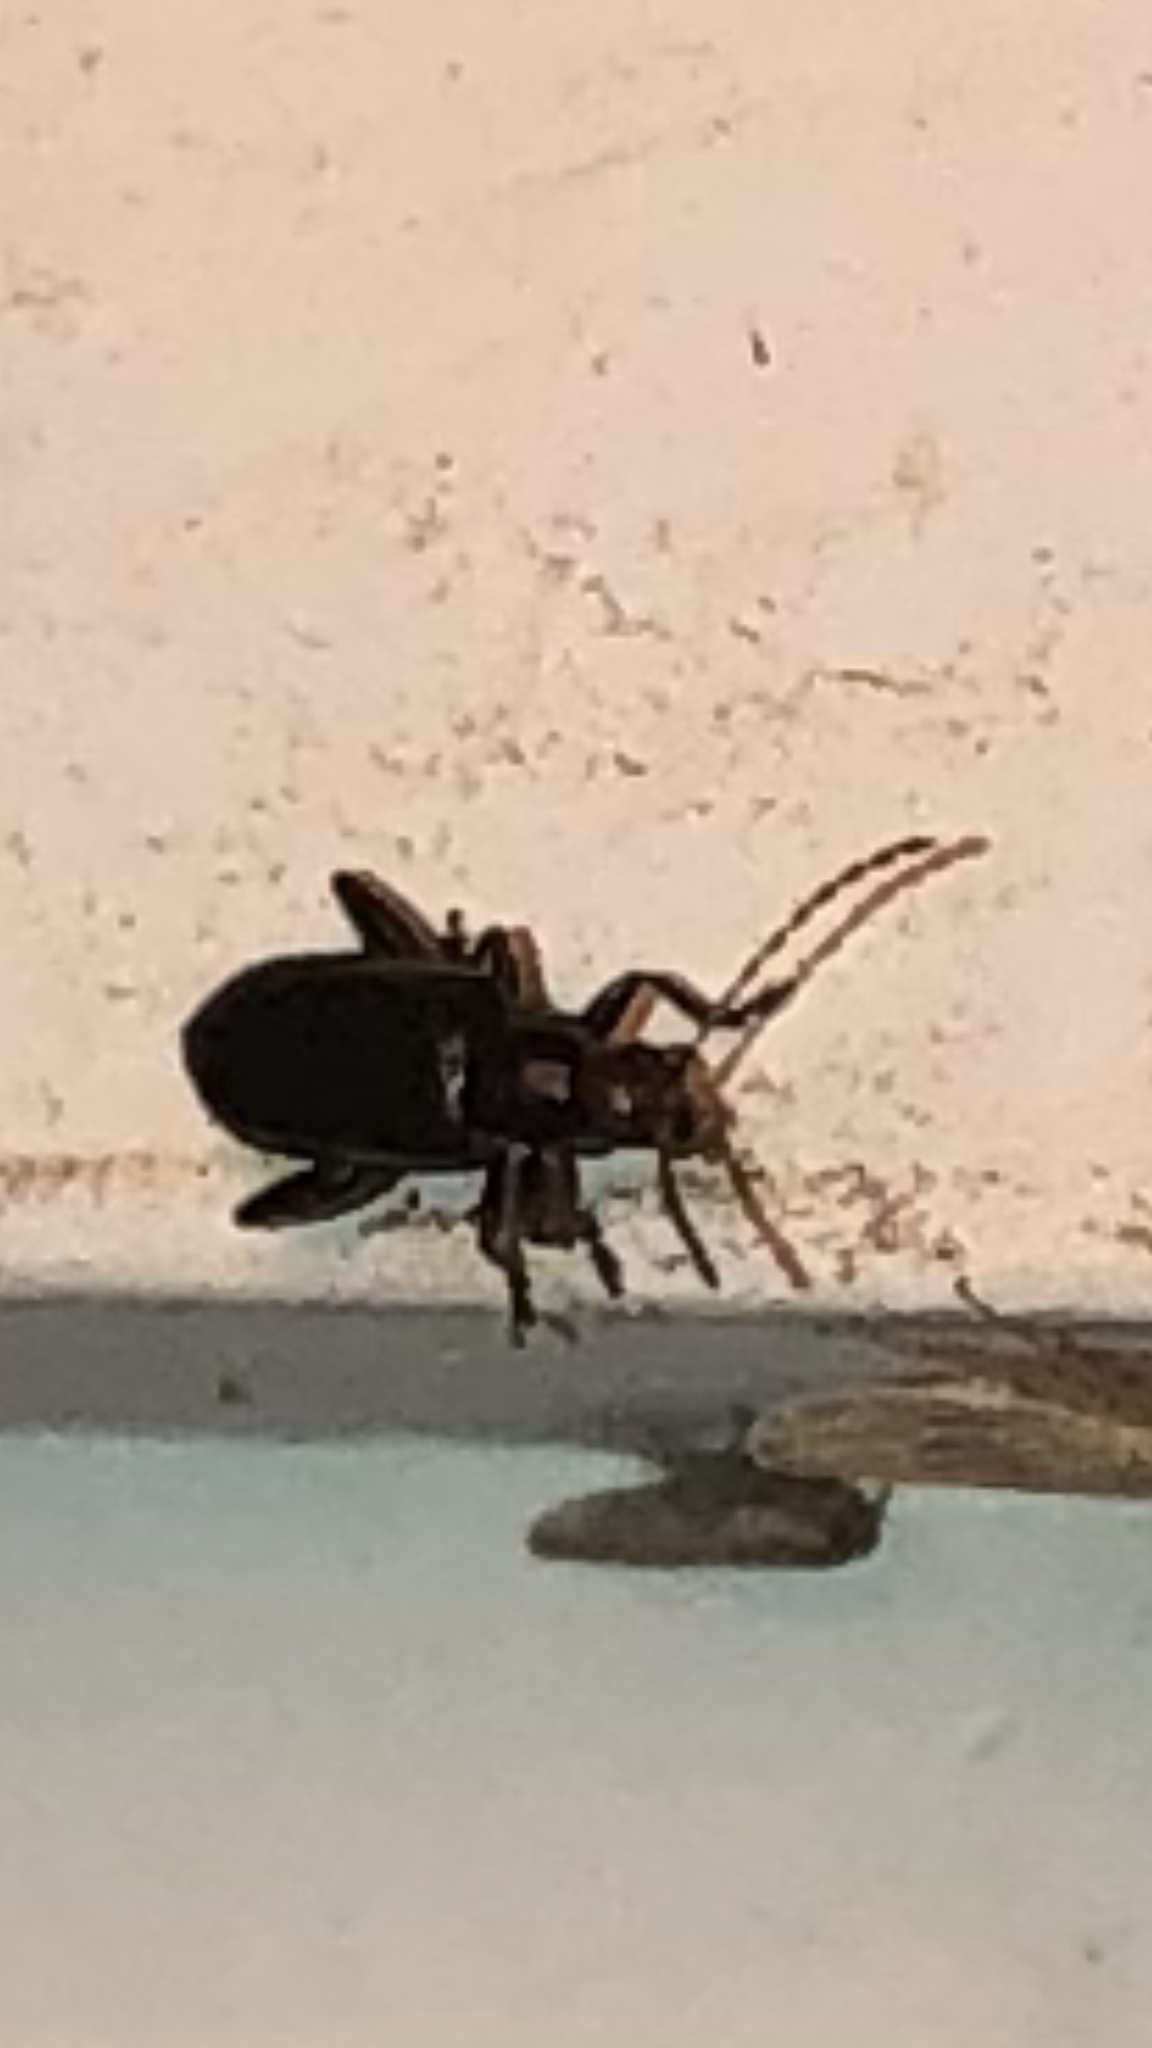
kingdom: Animalia
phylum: Arthropoda
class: Insecta
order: Coleoptera
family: Chrysomelidae
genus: Systena
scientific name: Systena frontalis
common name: Red-headed flea beetle
